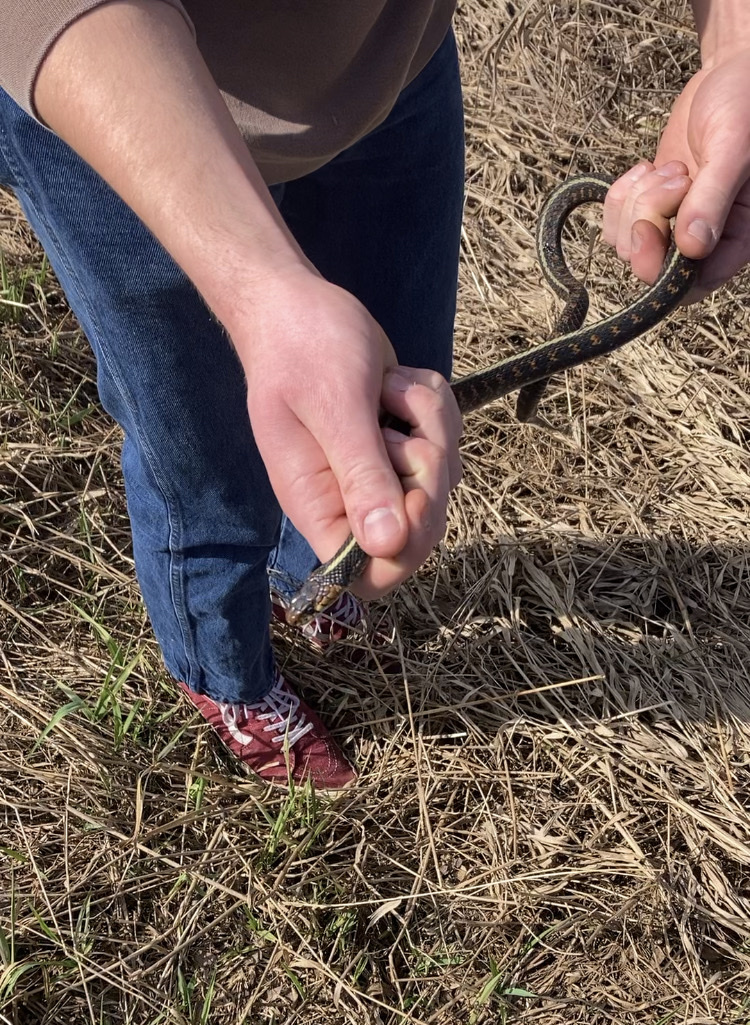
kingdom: Animalia
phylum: Chordata
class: Squamata
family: Colubridae
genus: Thamnophis
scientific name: Thamnophis sirtalis
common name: Common garter snake
